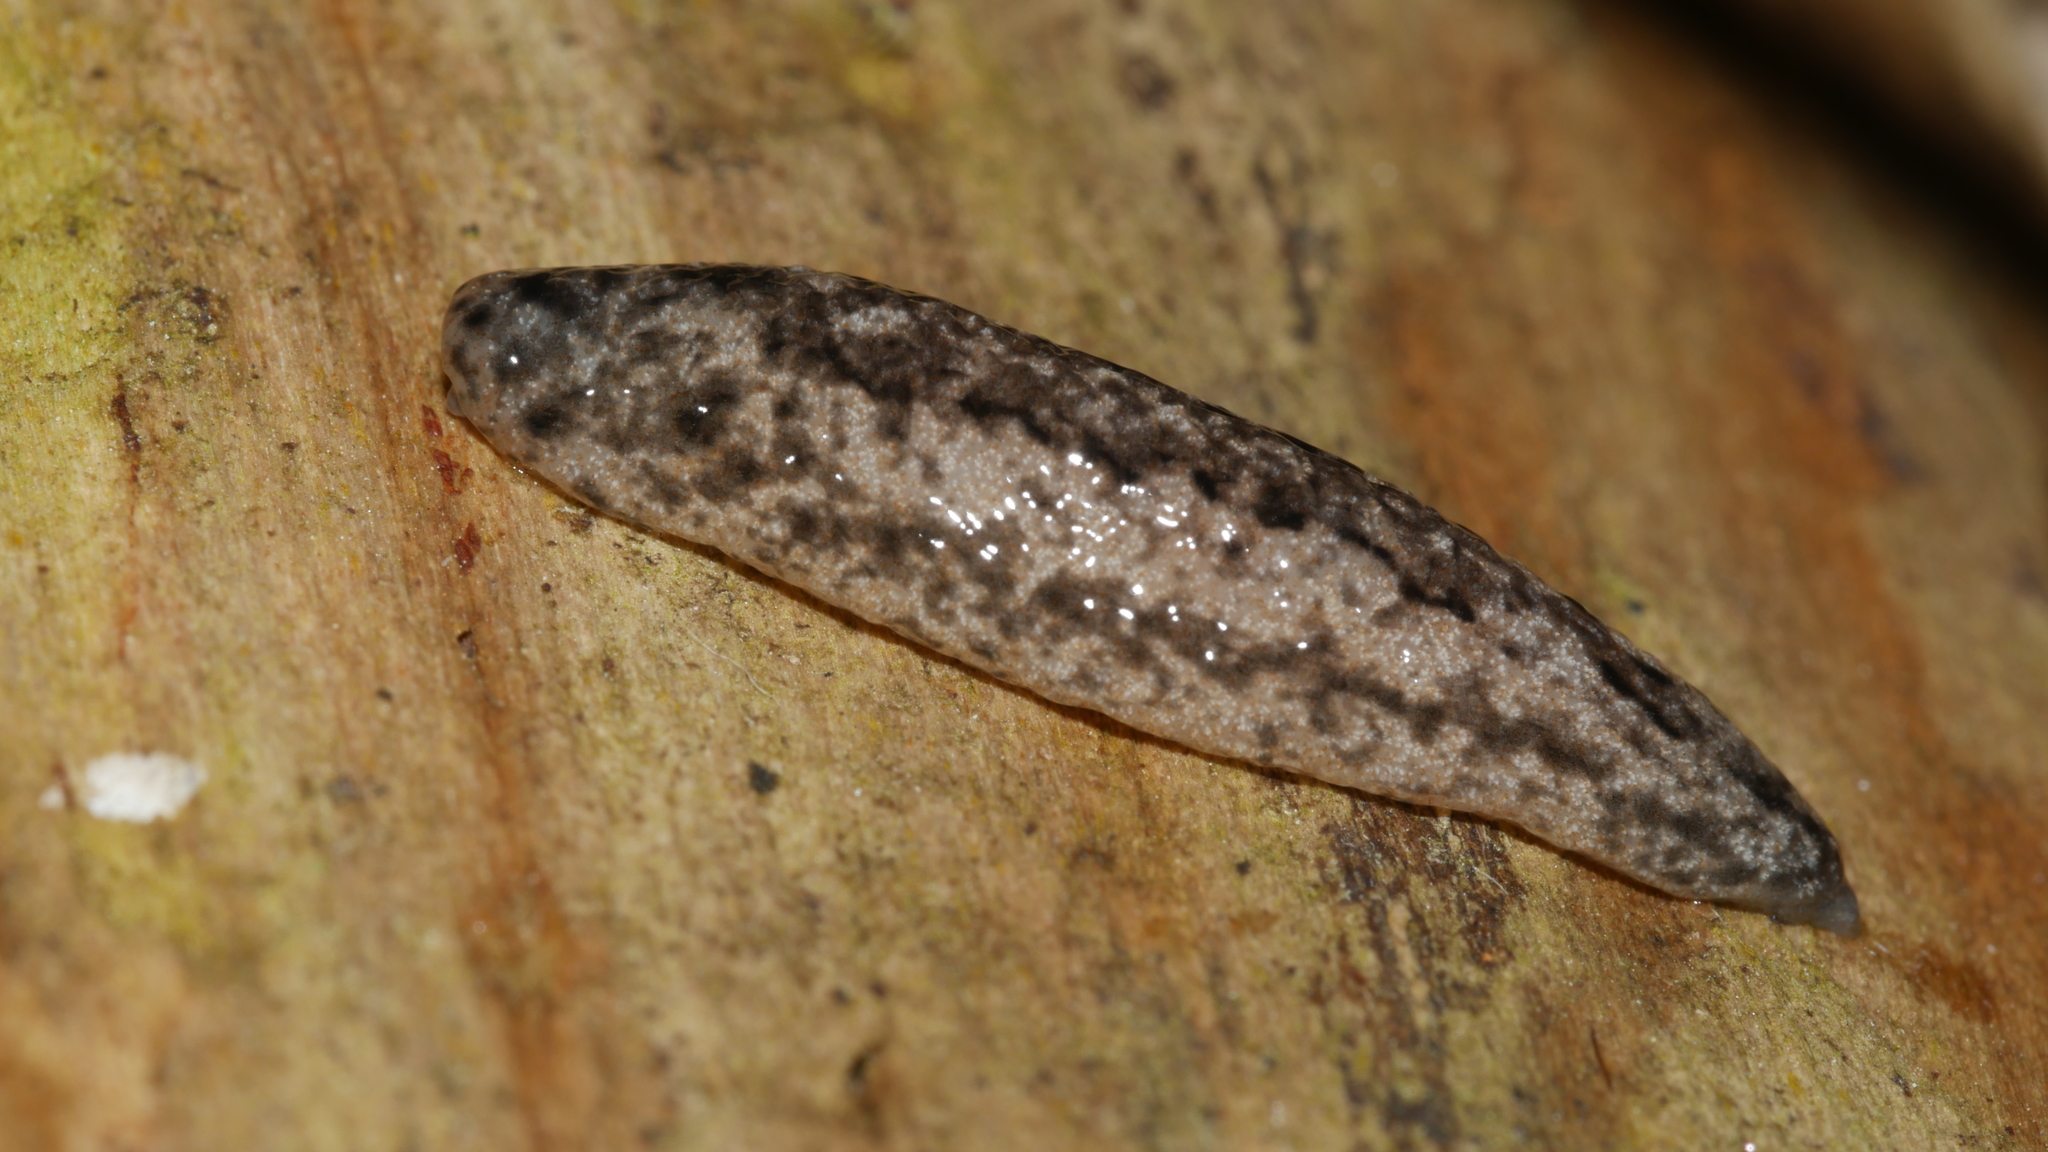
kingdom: Animalia
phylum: Mollusca
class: Gastropoda
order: Stylommatophora
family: Philomycidae
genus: Philomycus
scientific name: Philomycus togatus
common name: Toga mantleslug
